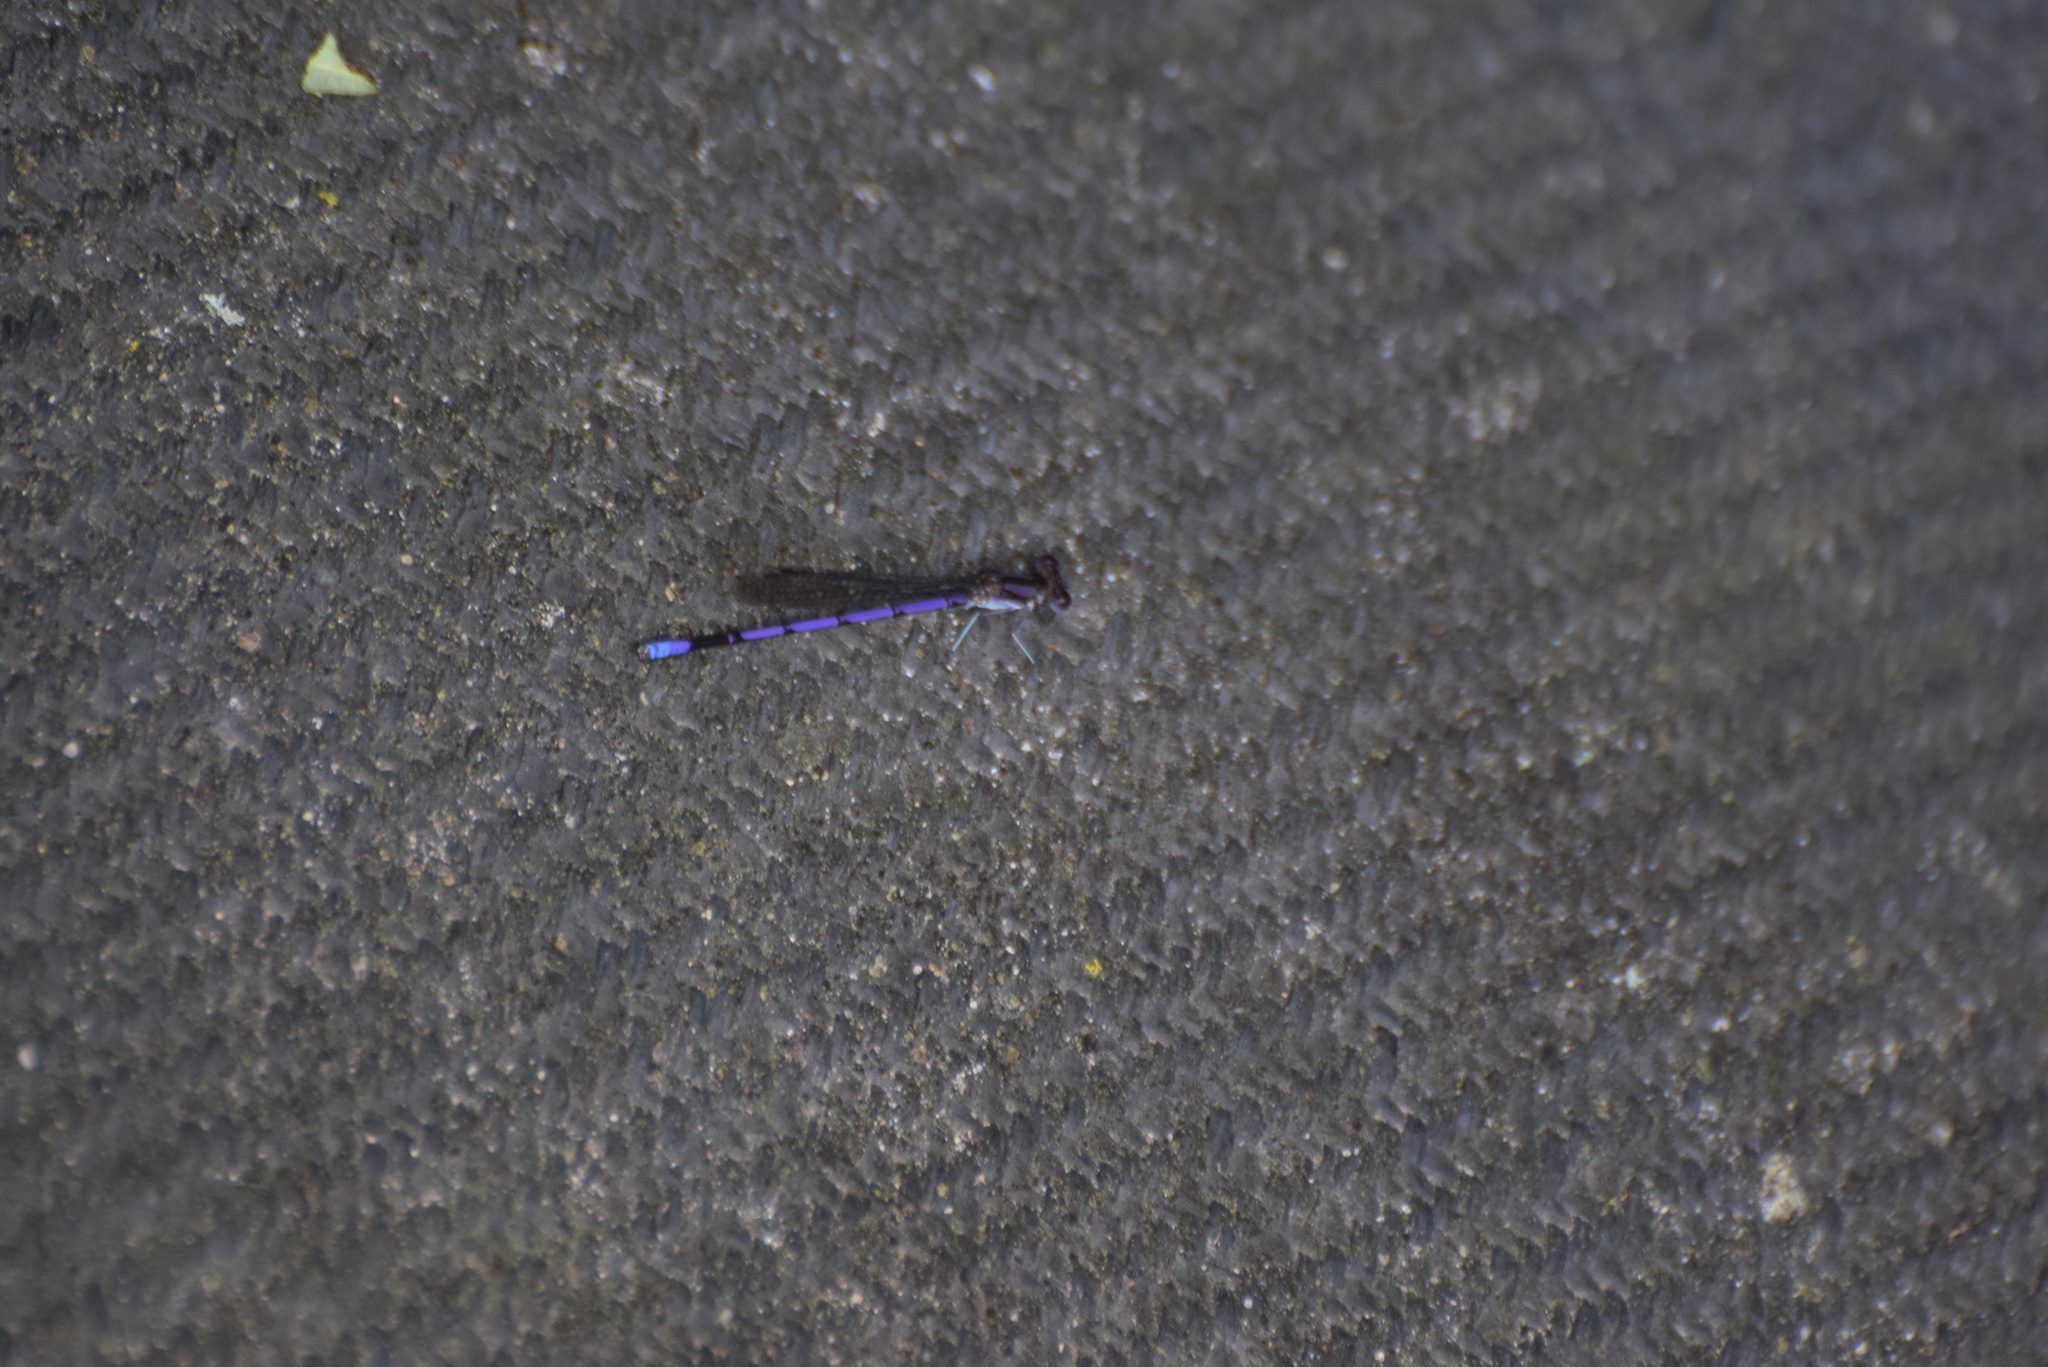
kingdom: Animalia
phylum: Arthropoda
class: Insecta
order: Odonata
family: Coenagrionidae
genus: Argia
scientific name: Argia fumipennis
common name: Variable dancer
